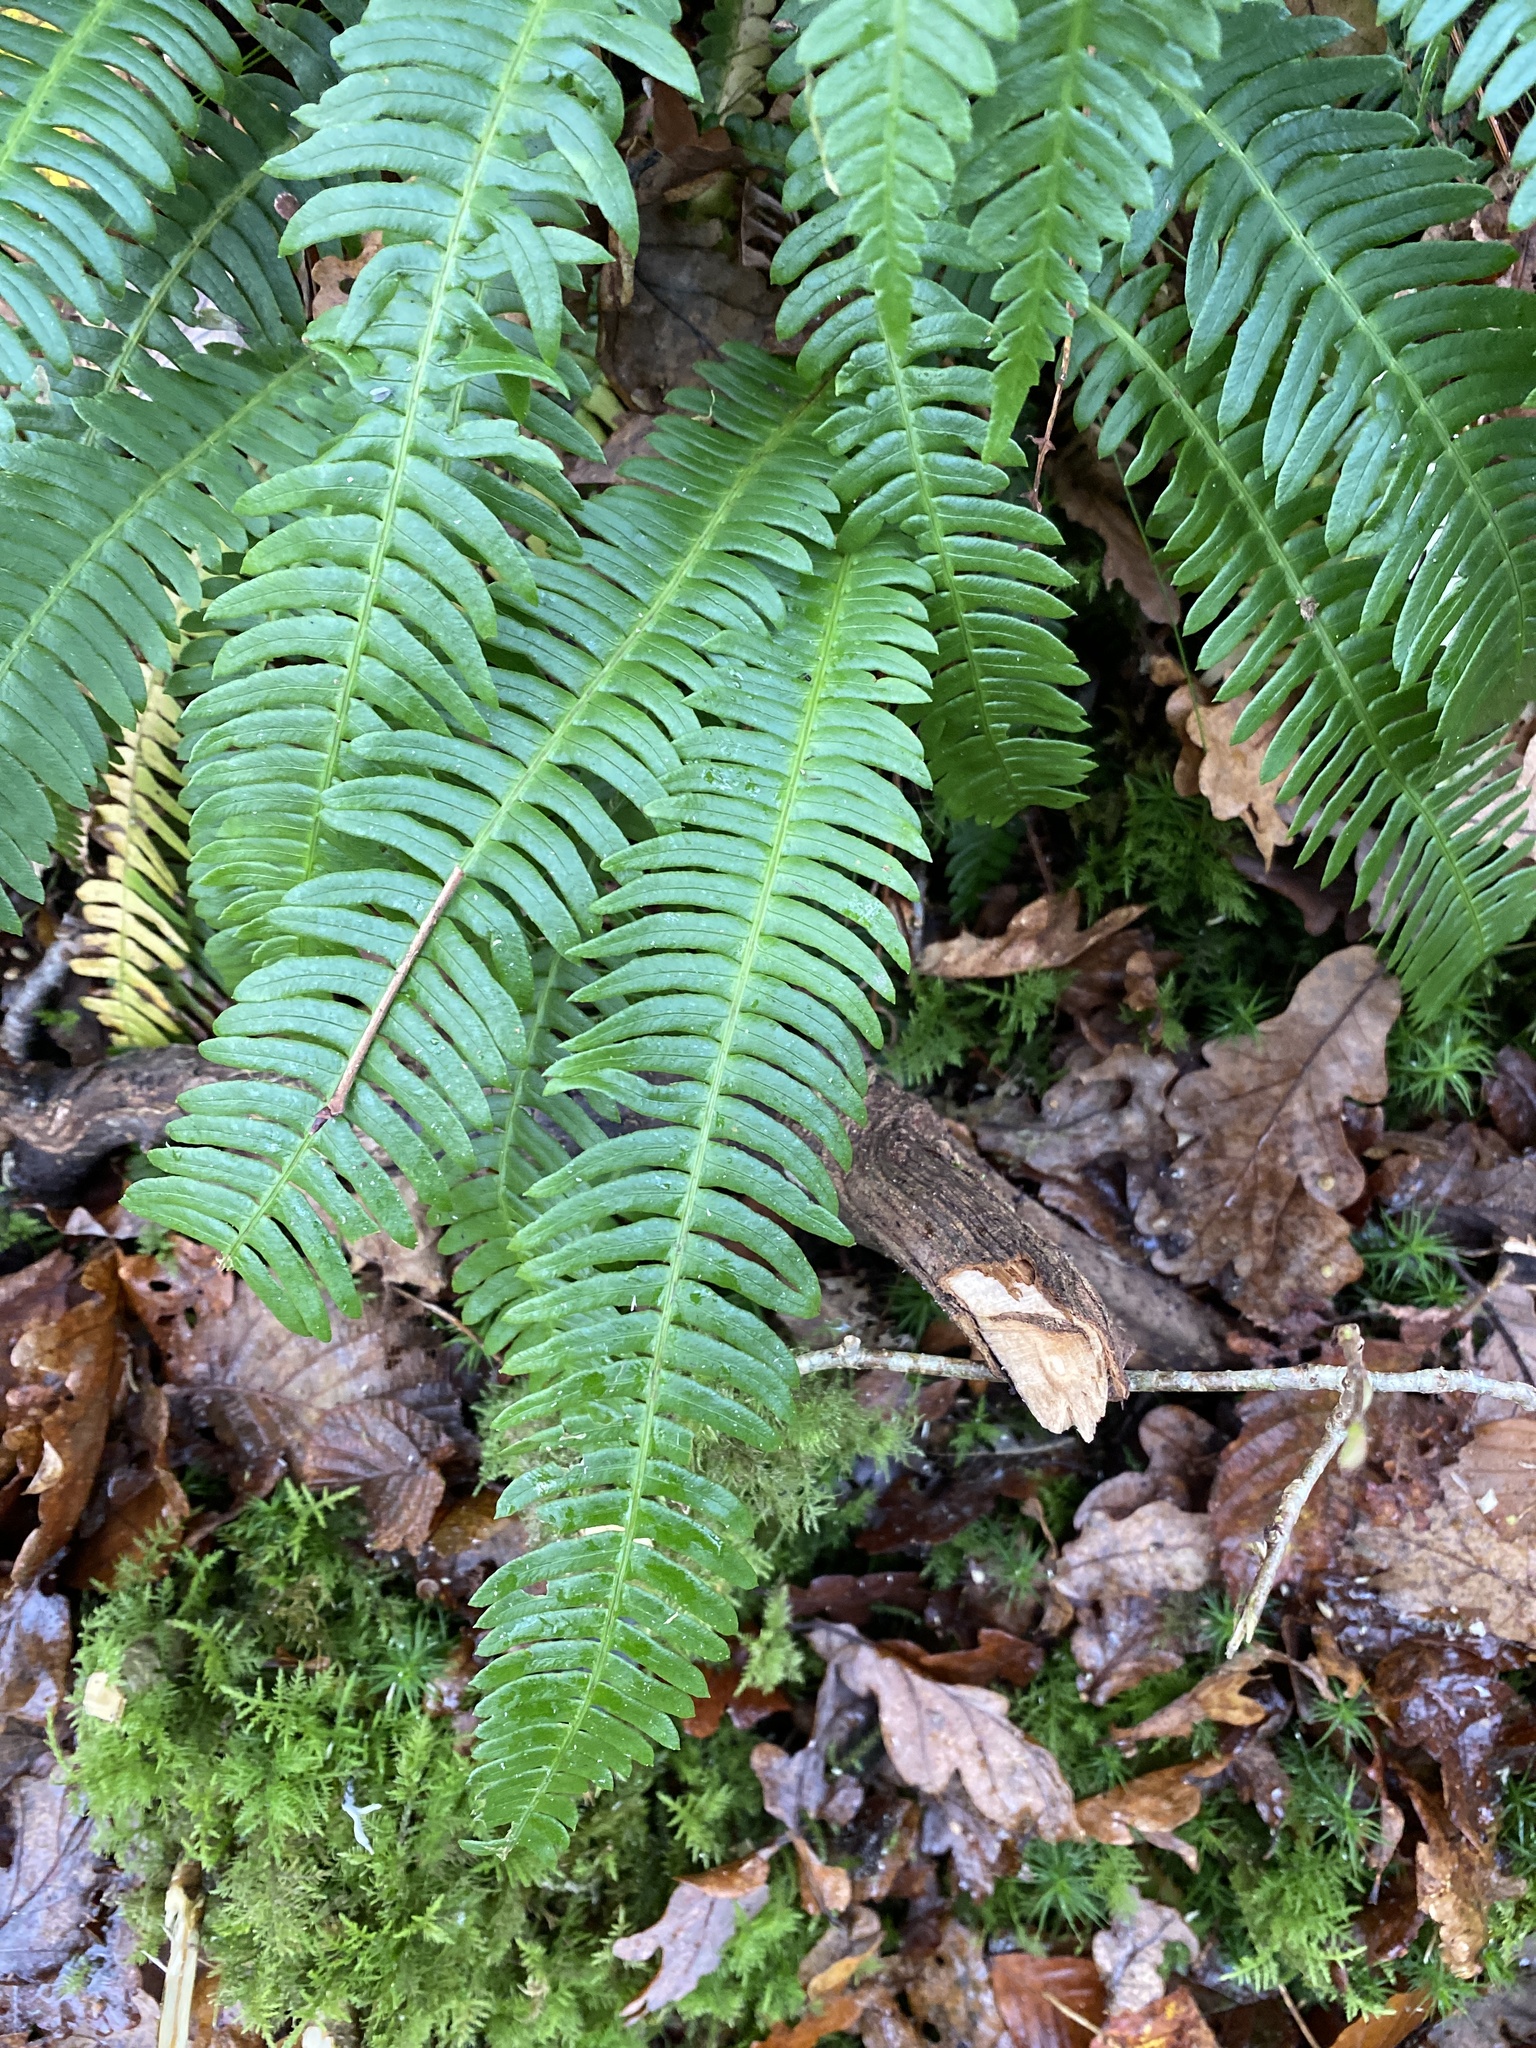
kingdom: Plantae
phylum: Tracheophyta
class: Polypodiopsida
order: Polypodiales
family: Blechnaceae
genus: Struthiopteris
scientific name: Struthiopteris spicant
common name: Deer fern
